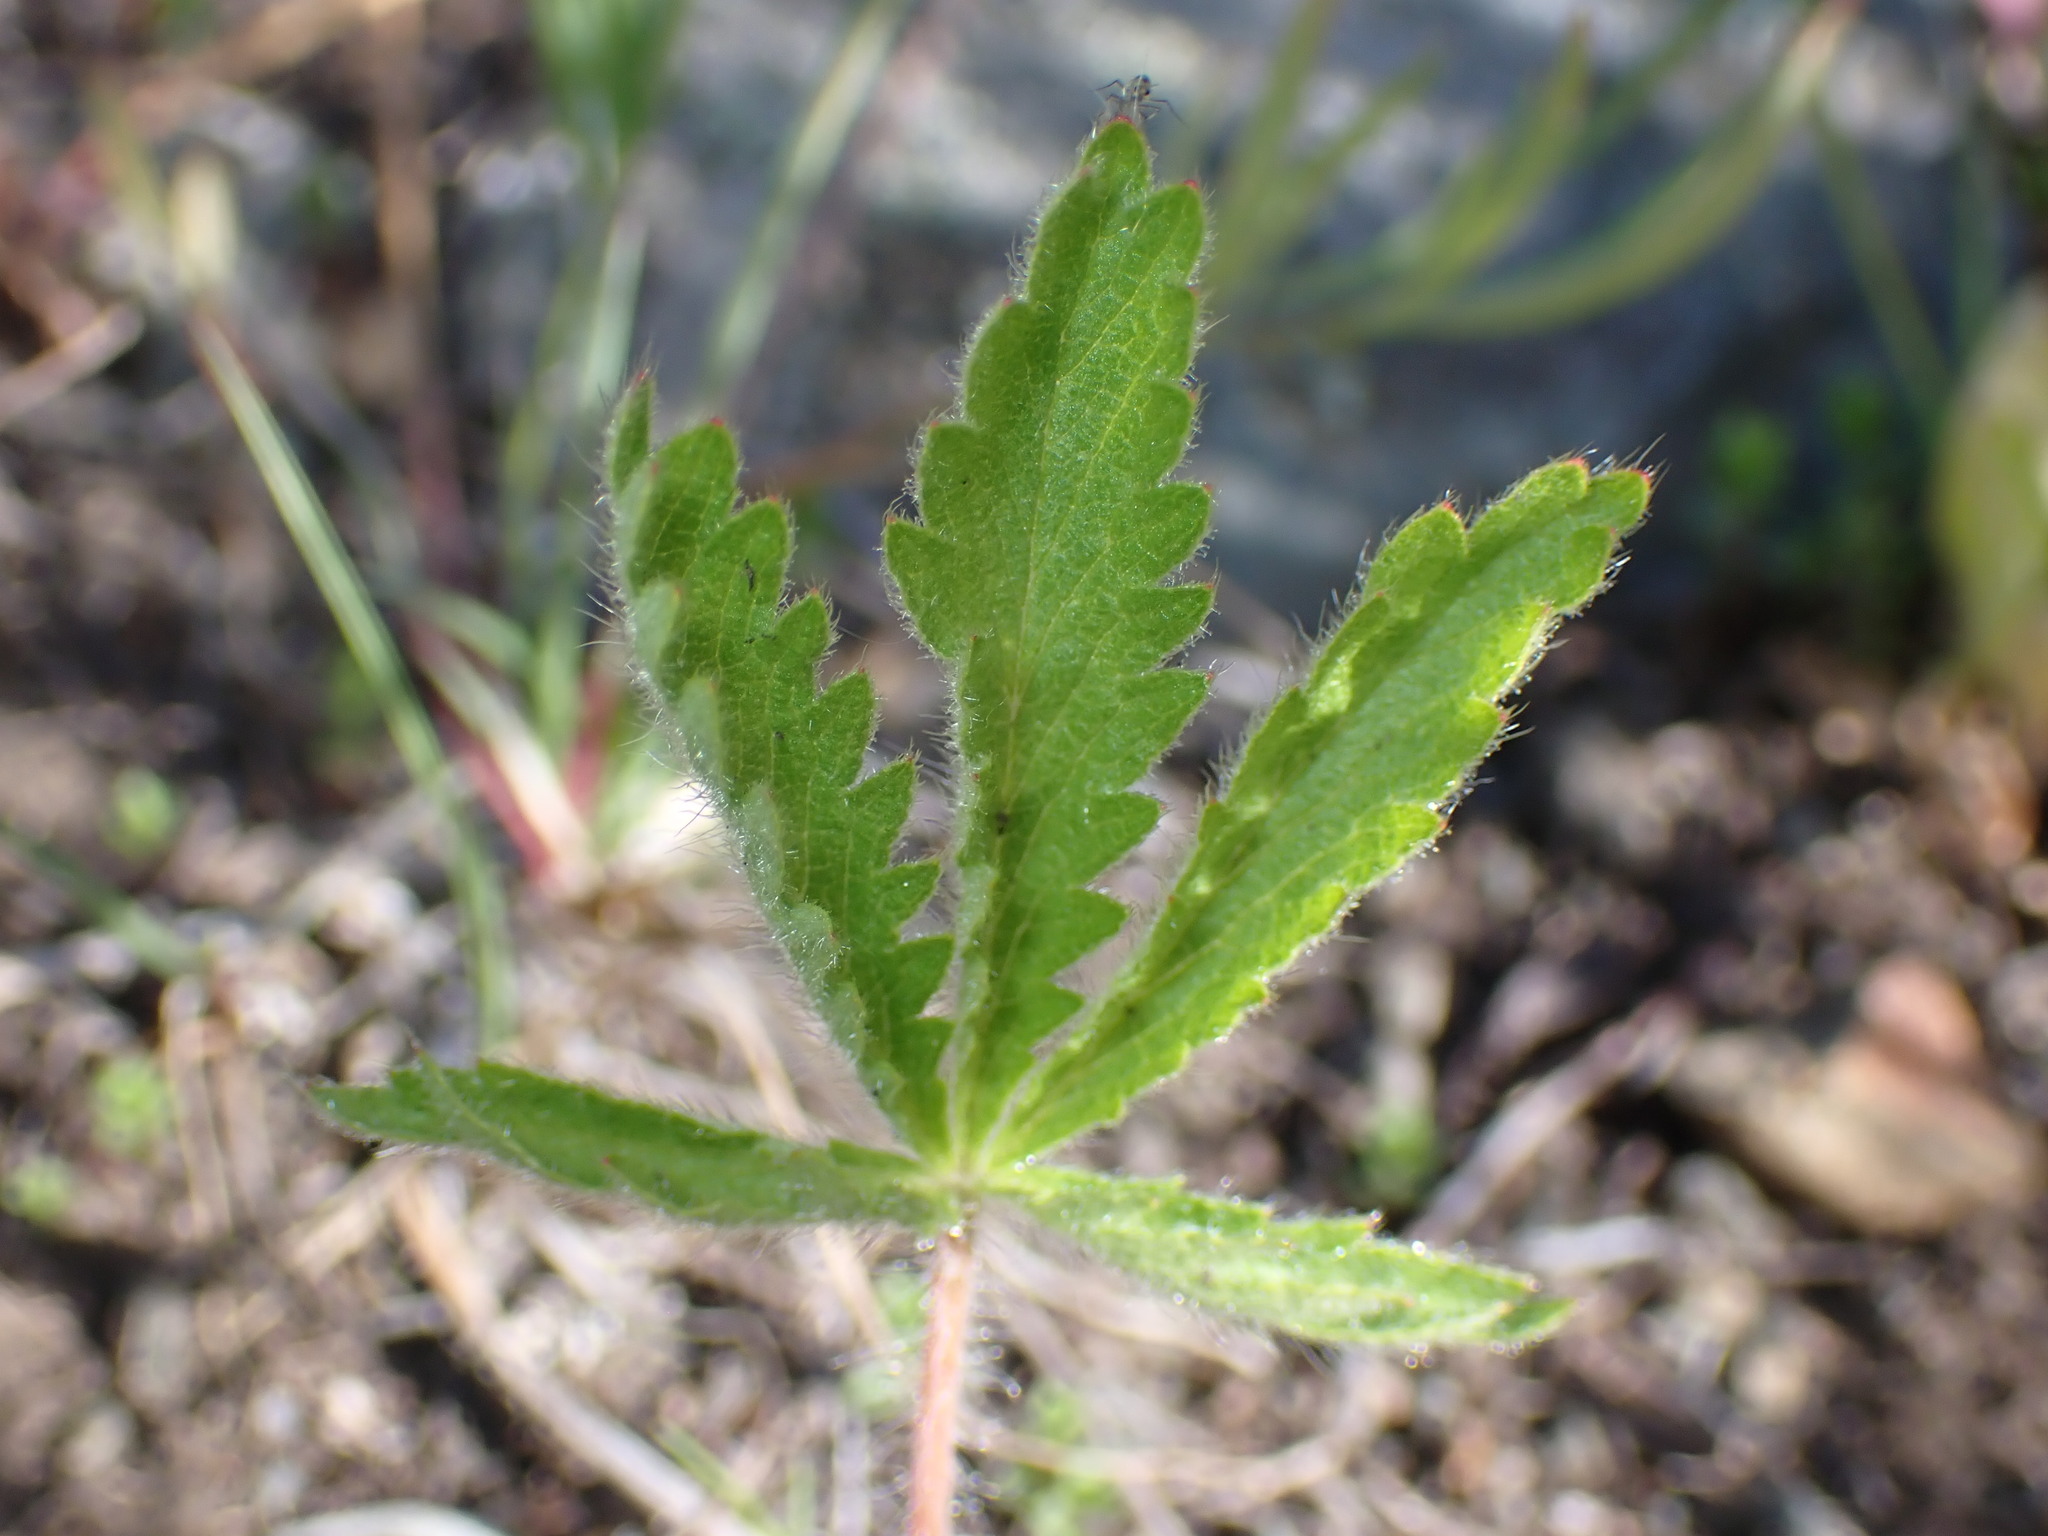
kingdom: Plantae
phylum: Tracheophyta
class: Magnoliopsida
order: Rosales
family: Rosaceae
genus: Potentilla
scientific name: Potentilla recta
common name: Sulphur cinquefoil
